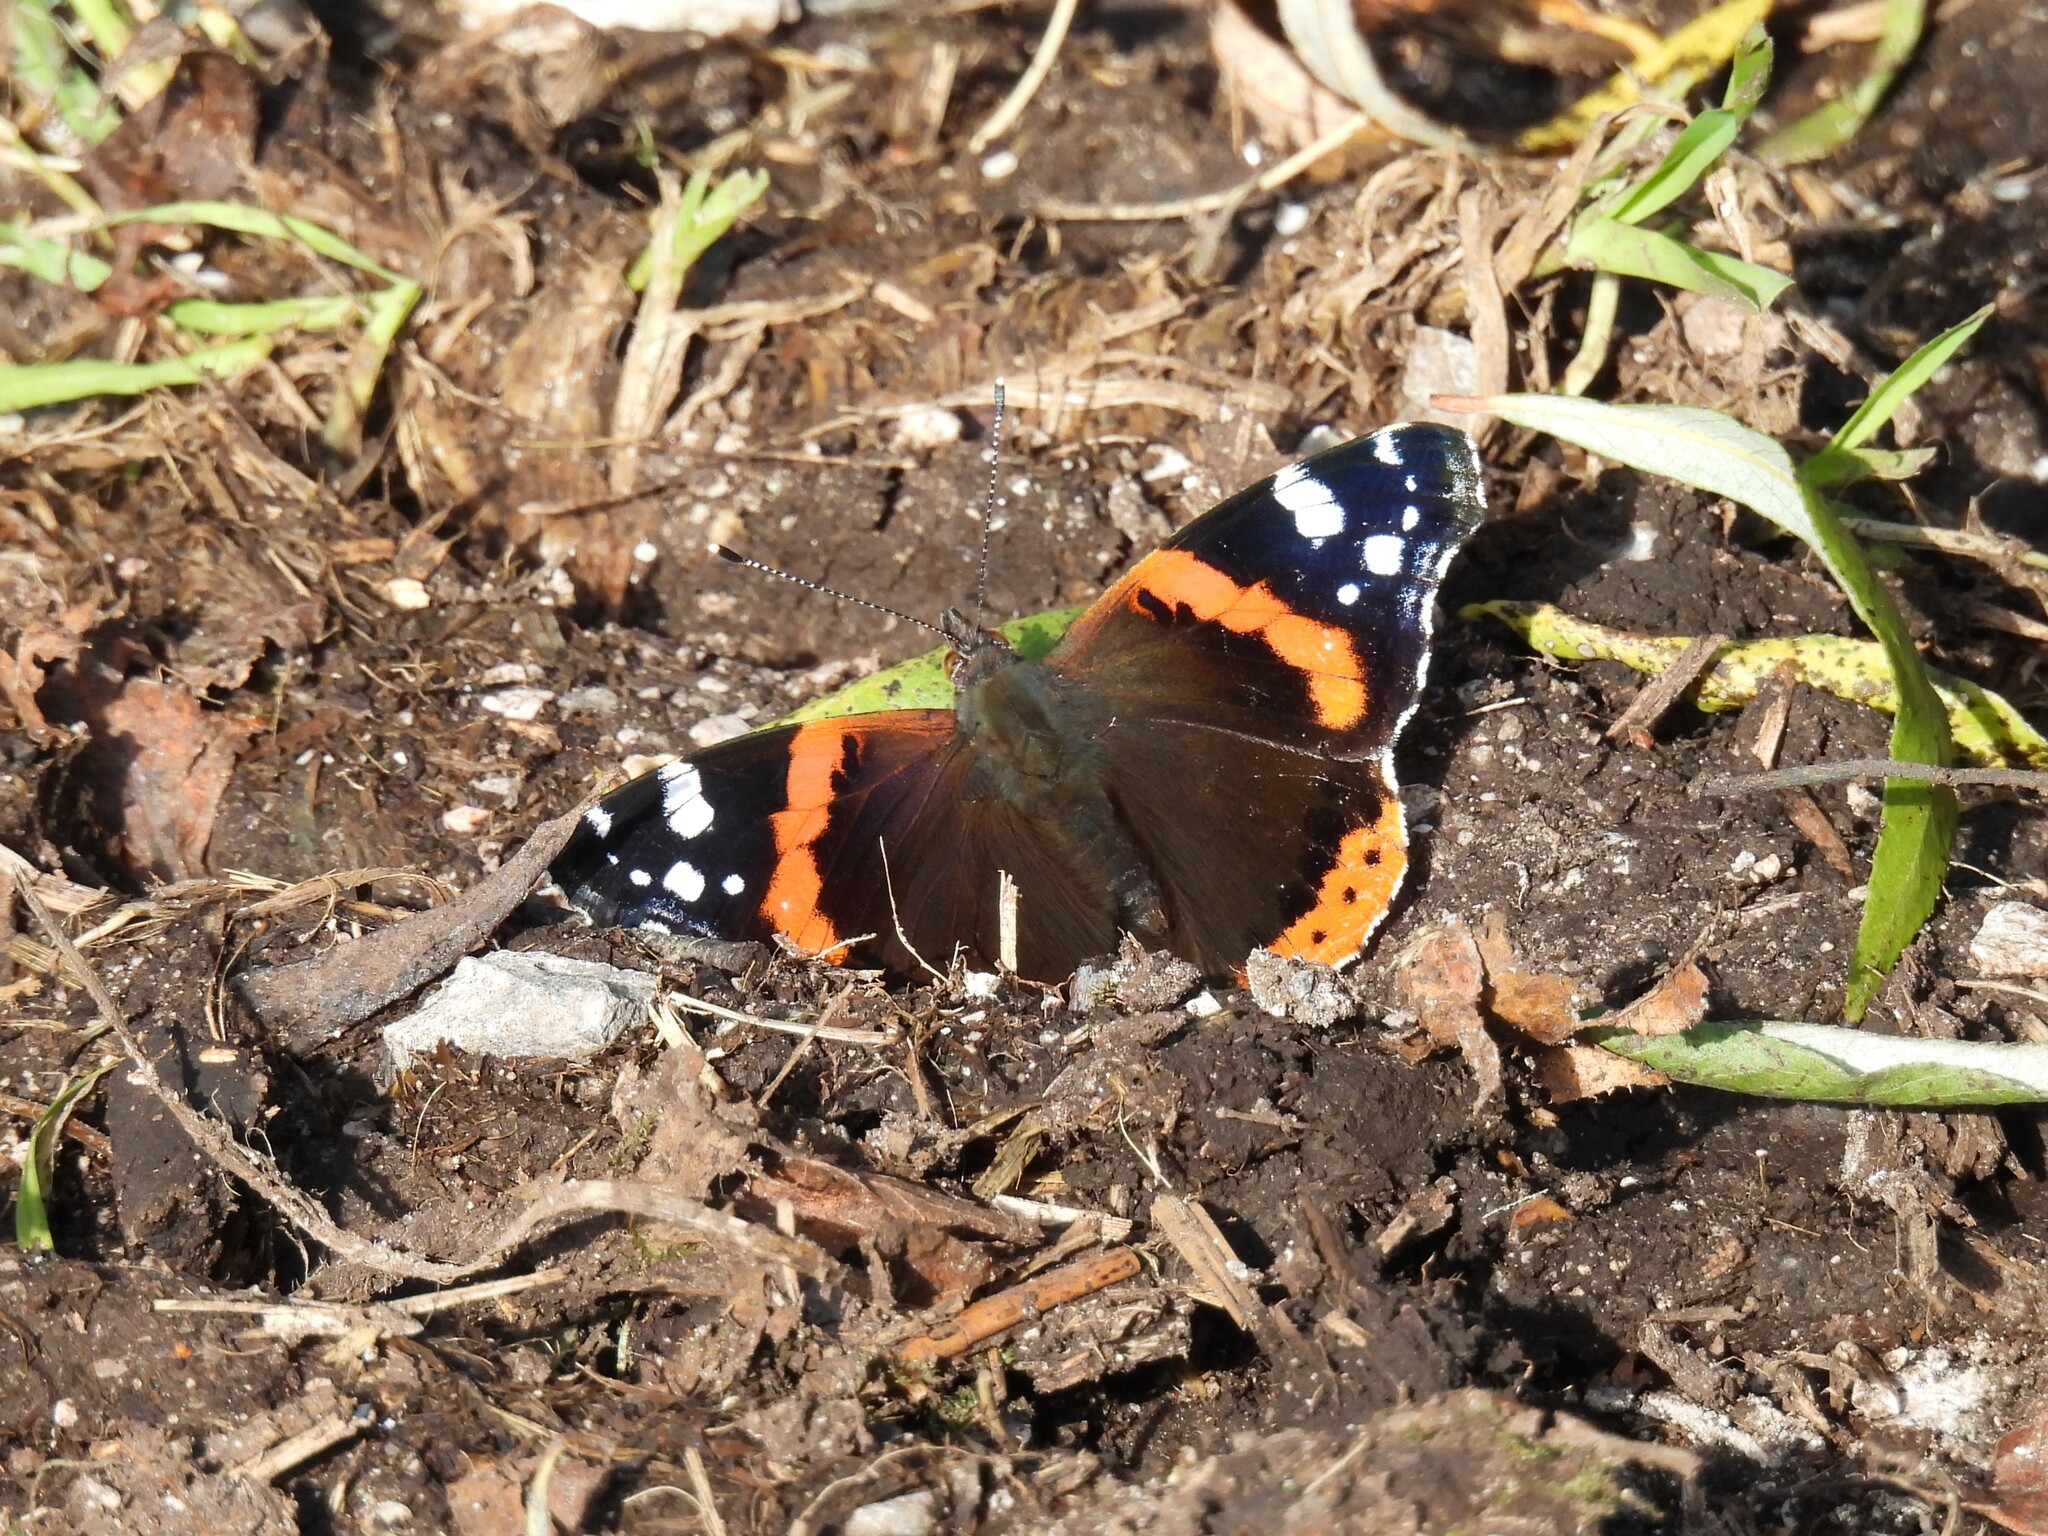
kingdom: Animalia
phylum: Arthropoda
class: Insecta
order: Lepidoptera
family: Nymphalidae
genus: Vanessa
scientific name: Vanessa atalanta
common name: Red admiral
